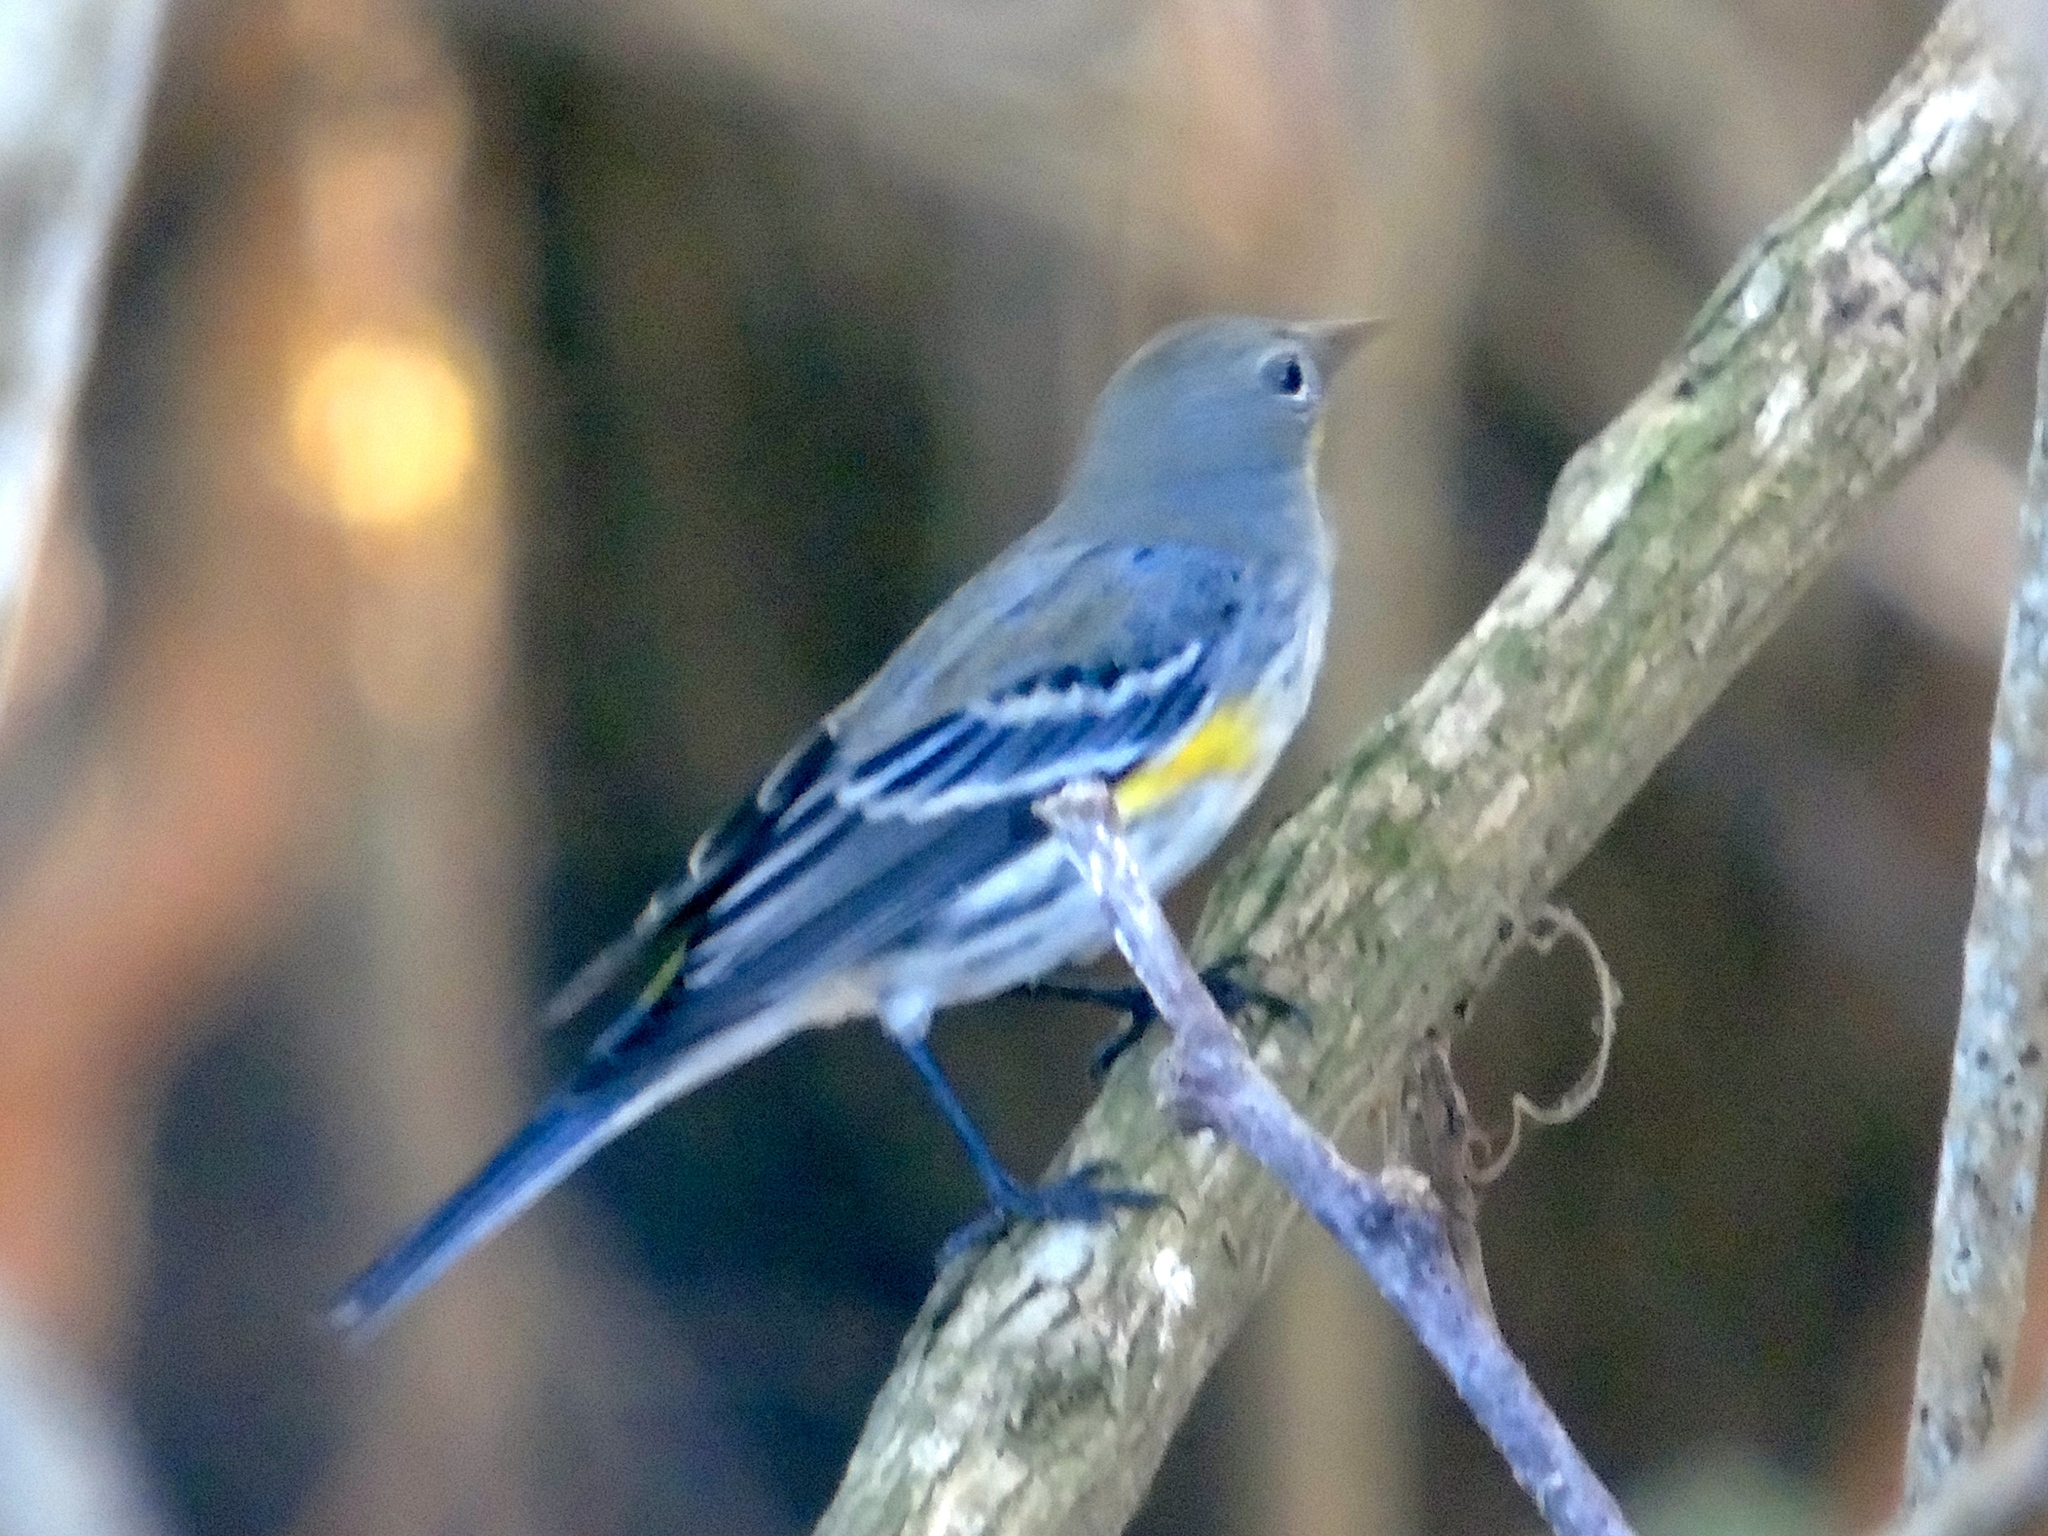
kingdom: Animalia
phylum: Chordata
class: Aves
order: Passeriformes
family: Parulidae
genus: Setophaga
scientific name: Setophaga coronata
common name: Myrtle warbler
